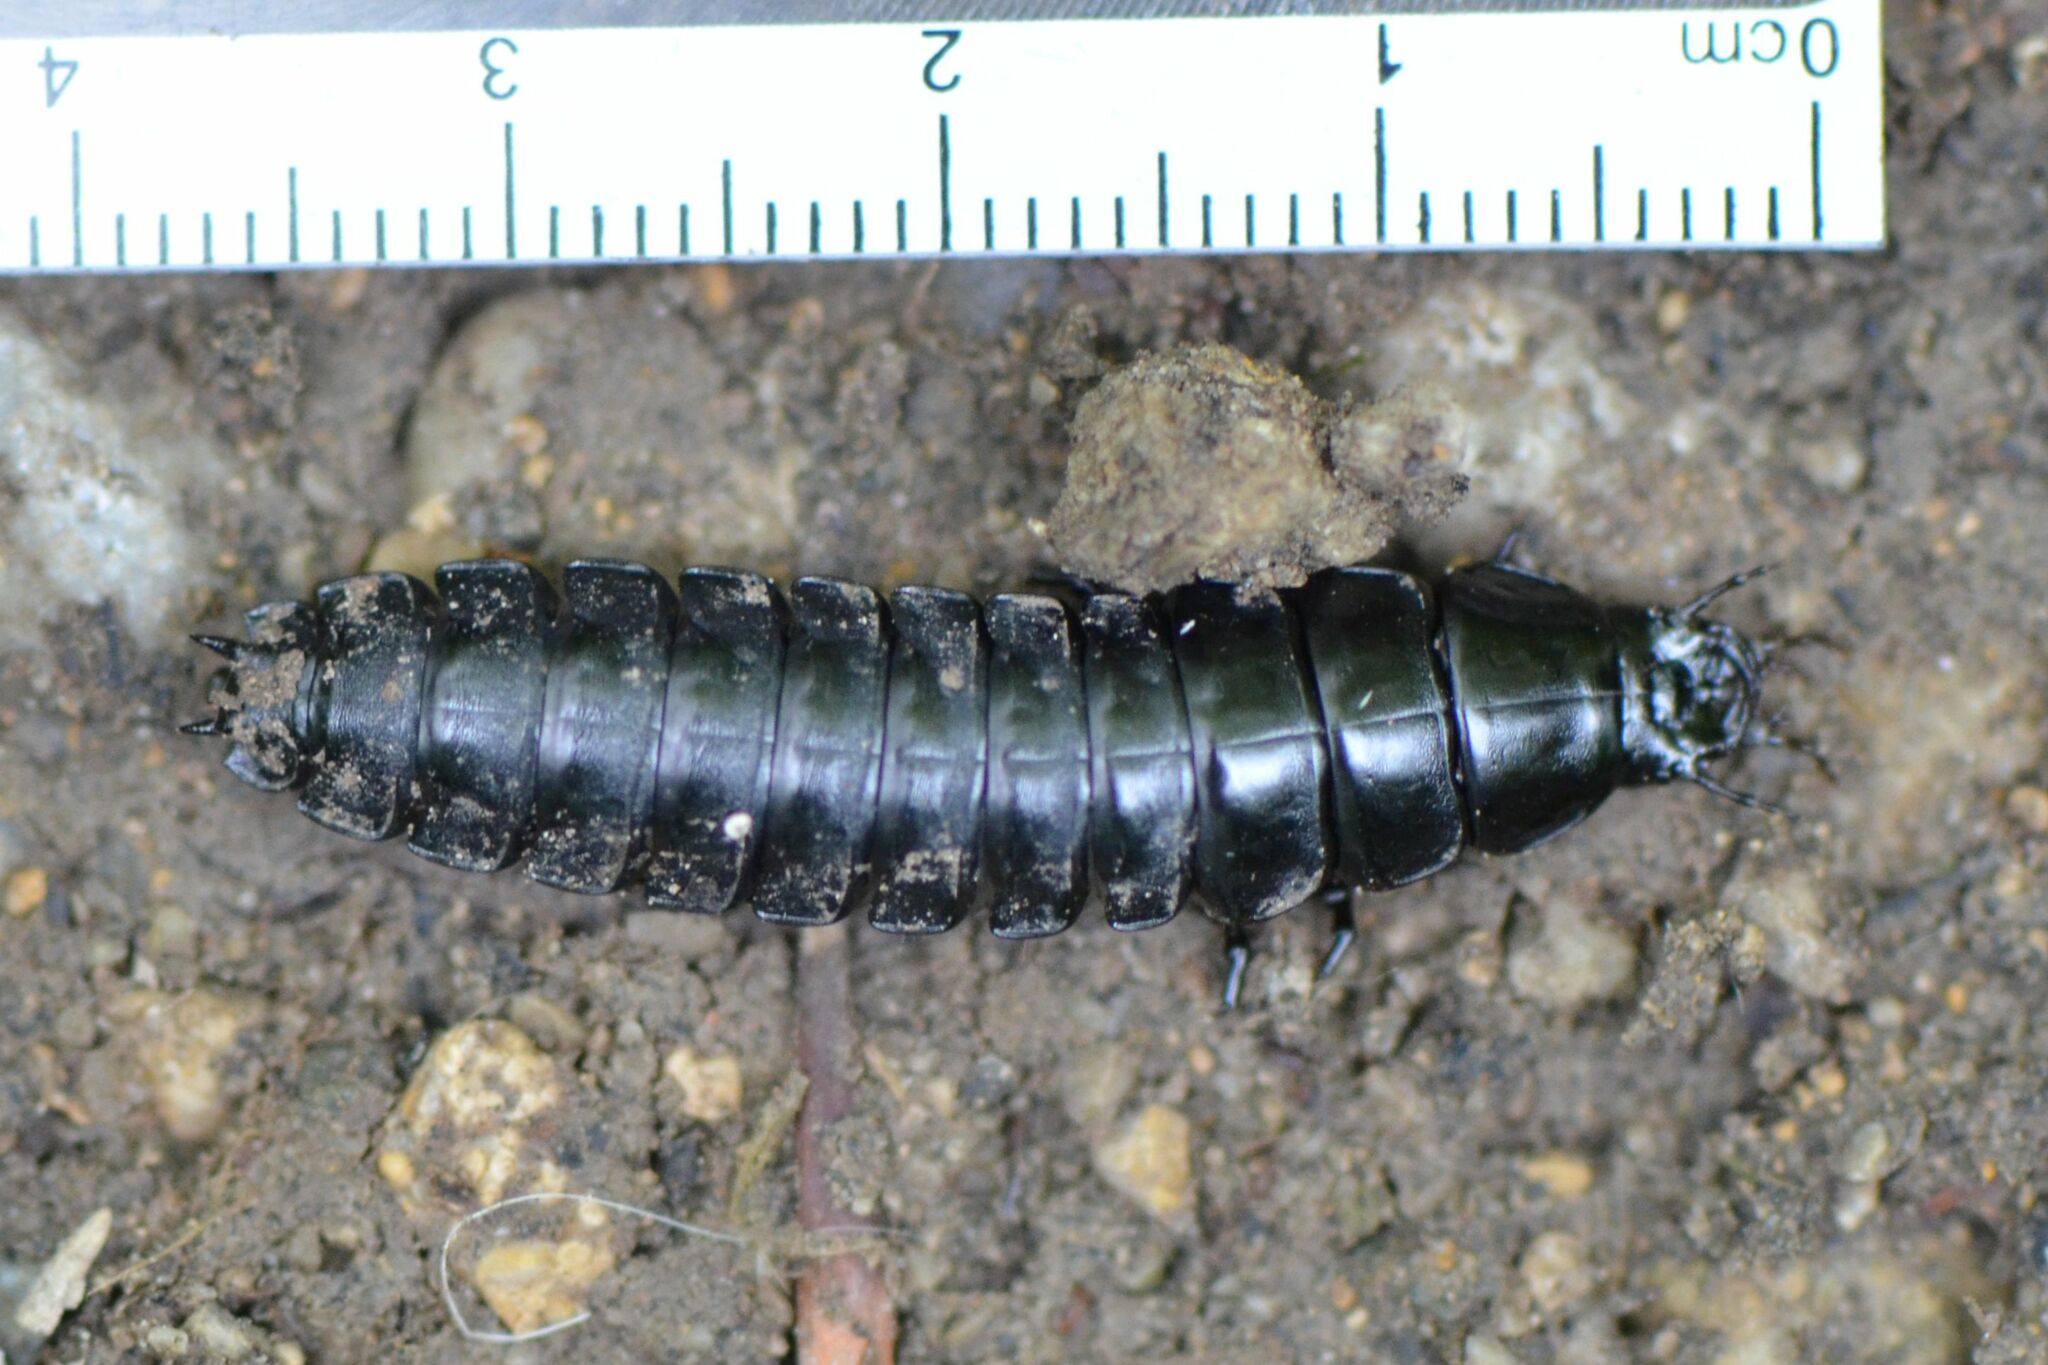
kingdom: Animalia
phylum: Arthropoda
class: Insecta
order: Coleoptera
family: Carabidae
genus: Carabus
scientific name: Carabus
